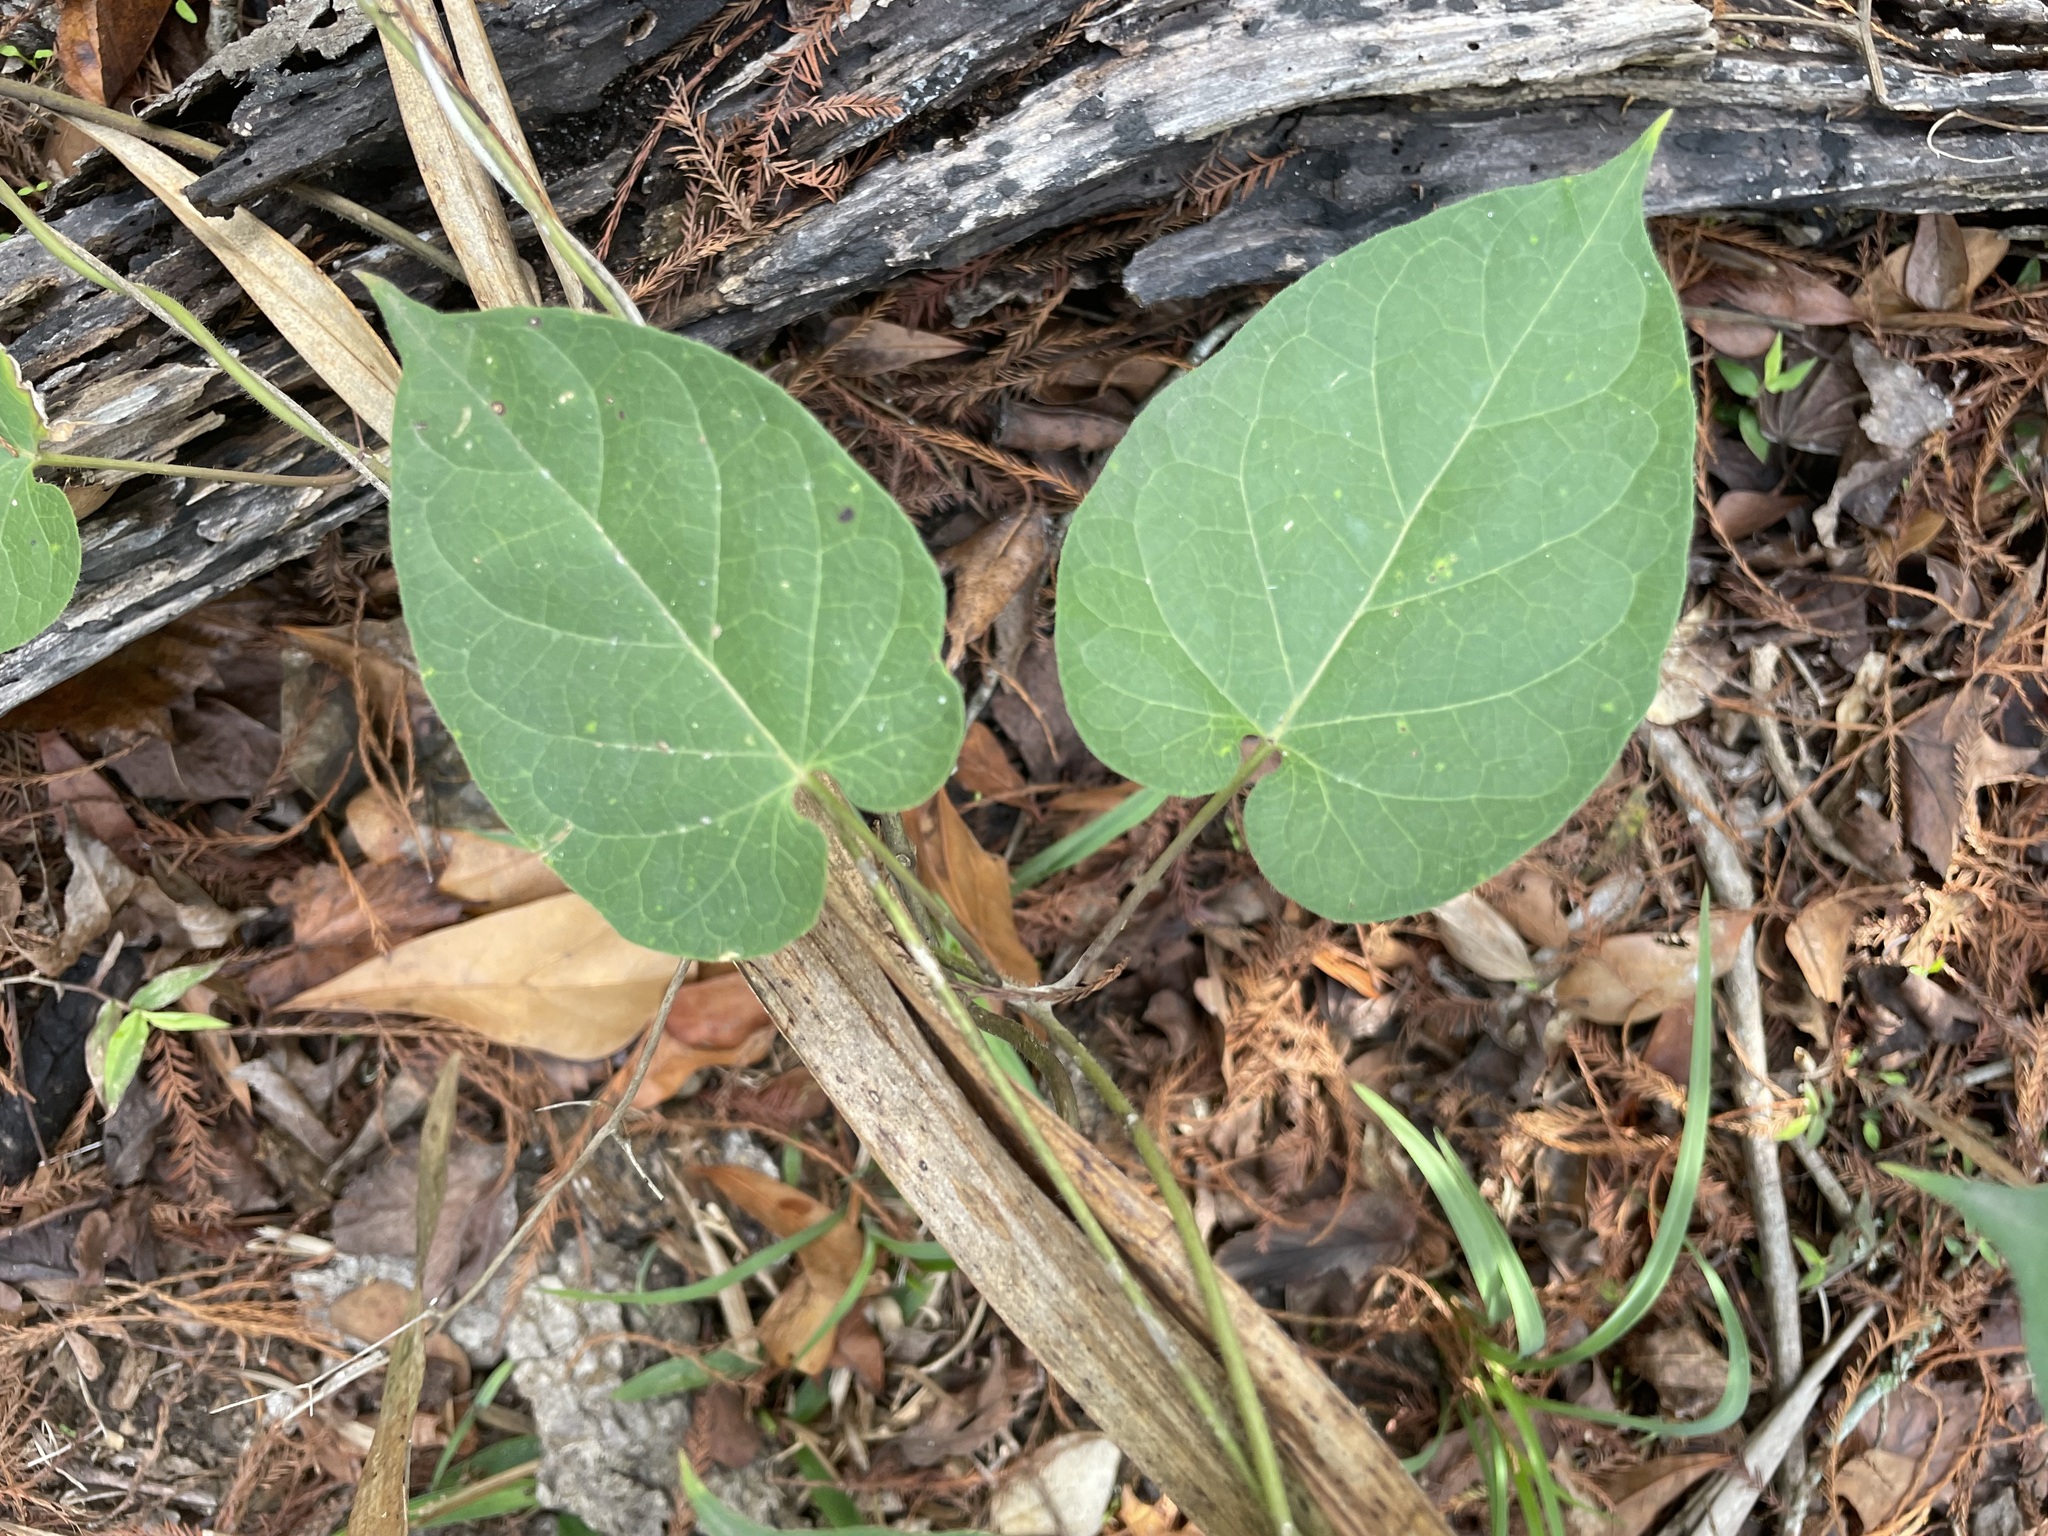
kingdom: Plantae
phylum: Tracheophyta
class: Magnoliopsida
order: Gentianales
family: Apocynaceae
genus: Gonolobus
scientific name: Gonolobus suberosus
